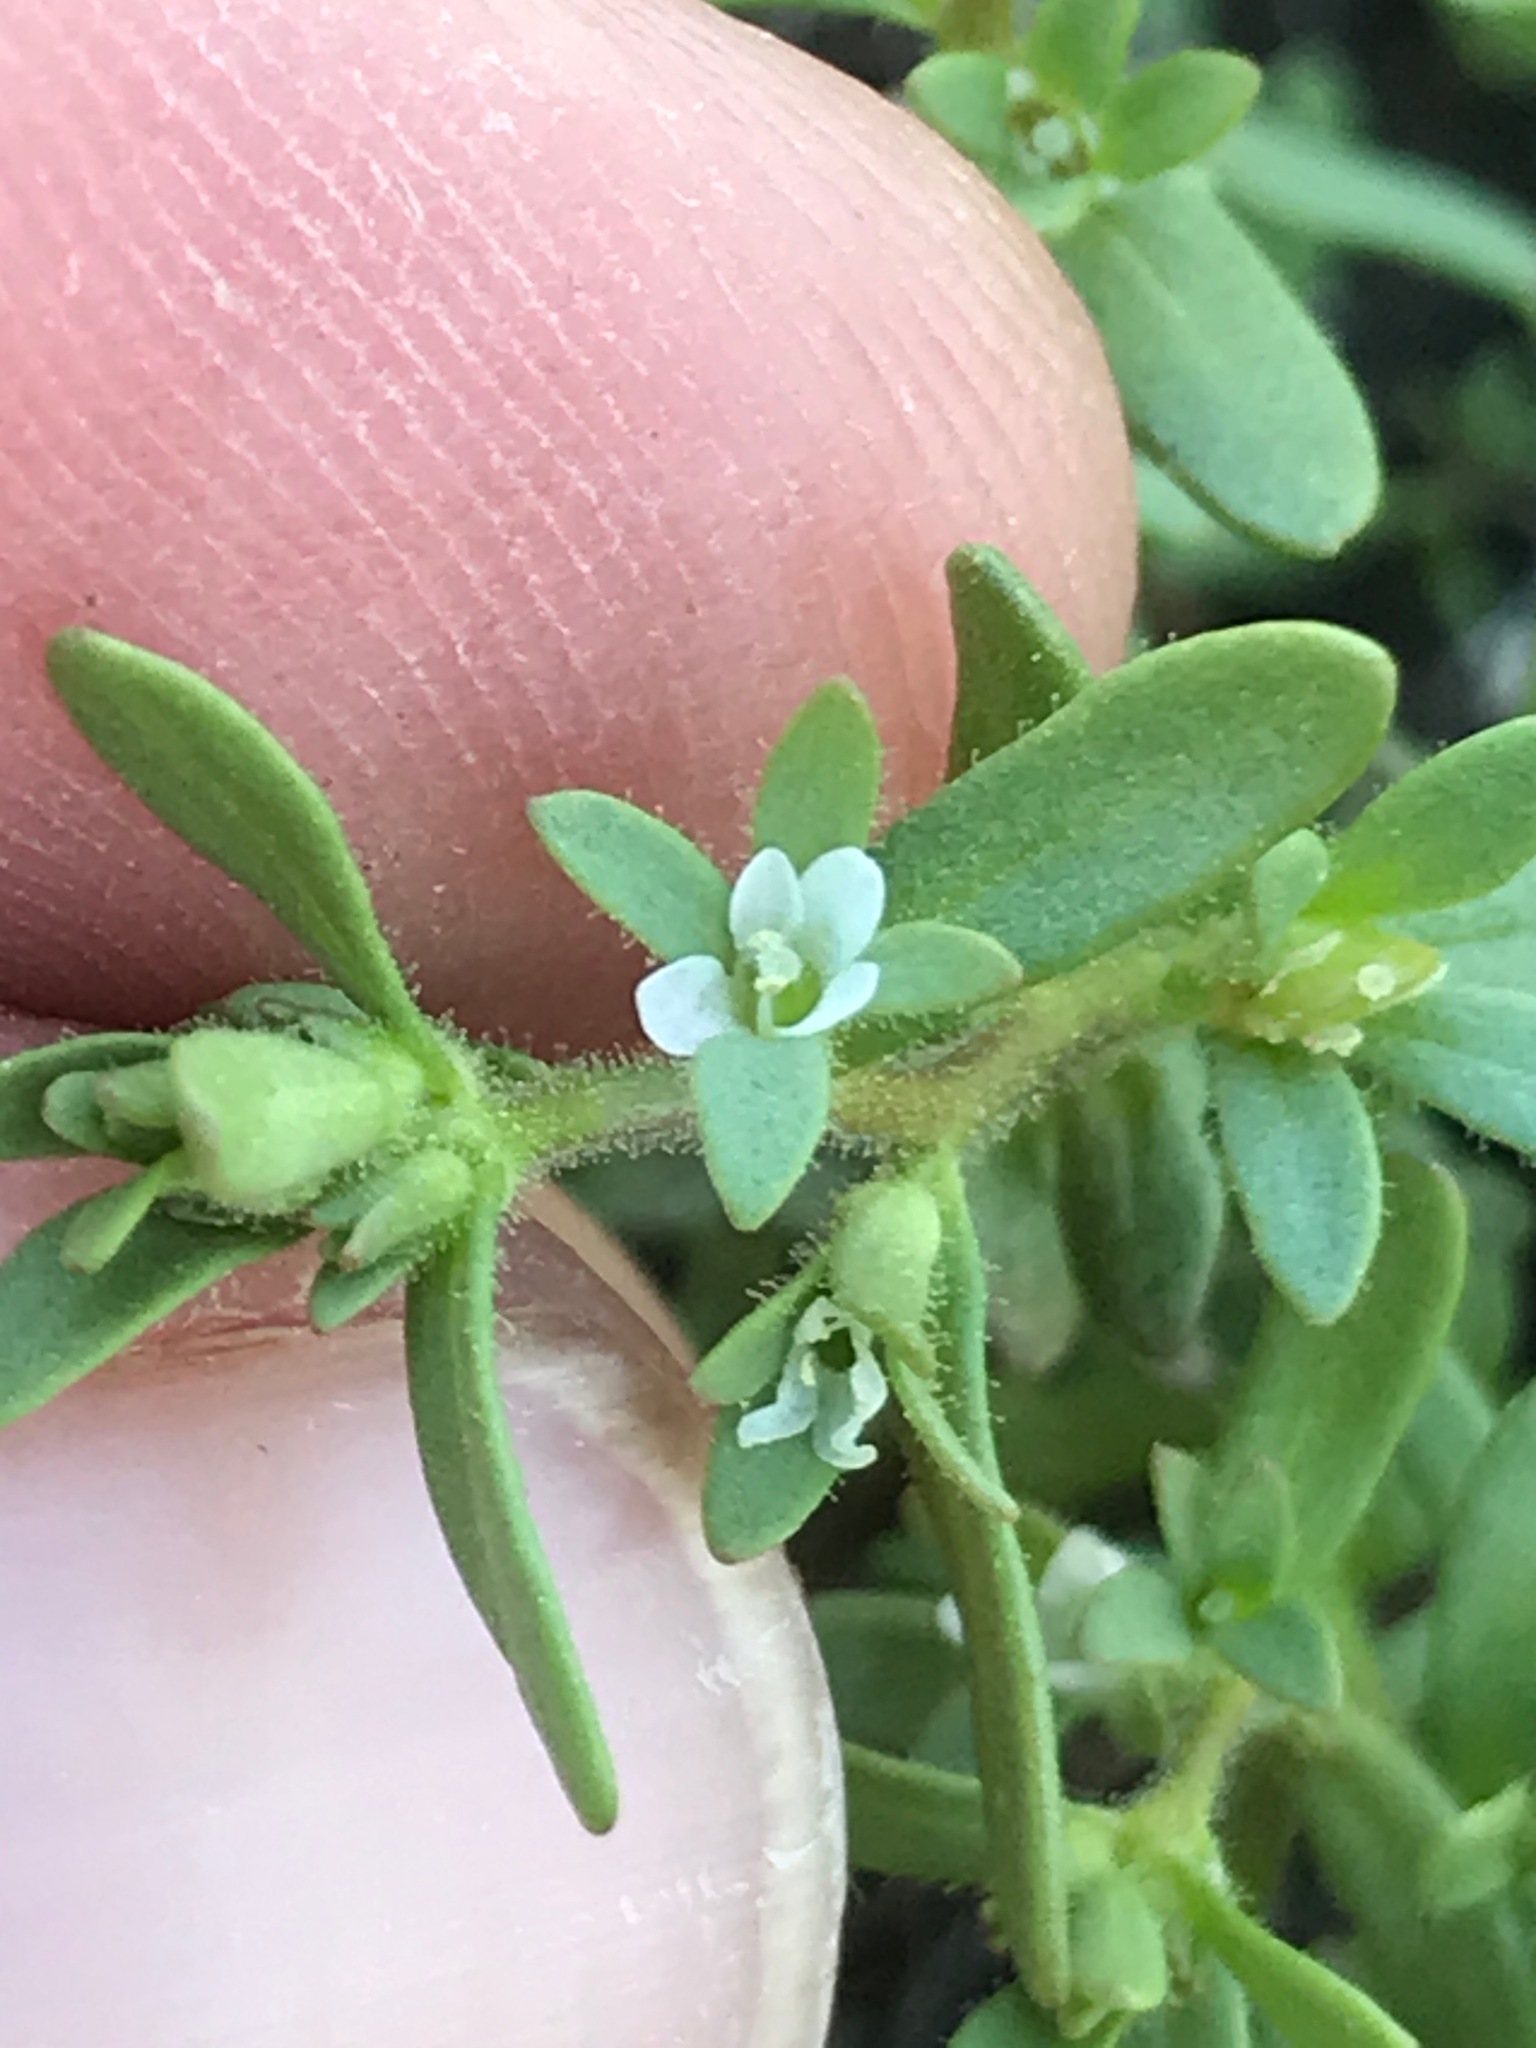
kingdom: Plantae
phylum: Tracheophyta
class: Magnoliopsida
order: Lamiales
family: Plantaginaceae
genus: Veronica
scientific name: Veronica peregrina
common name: Neckweed
